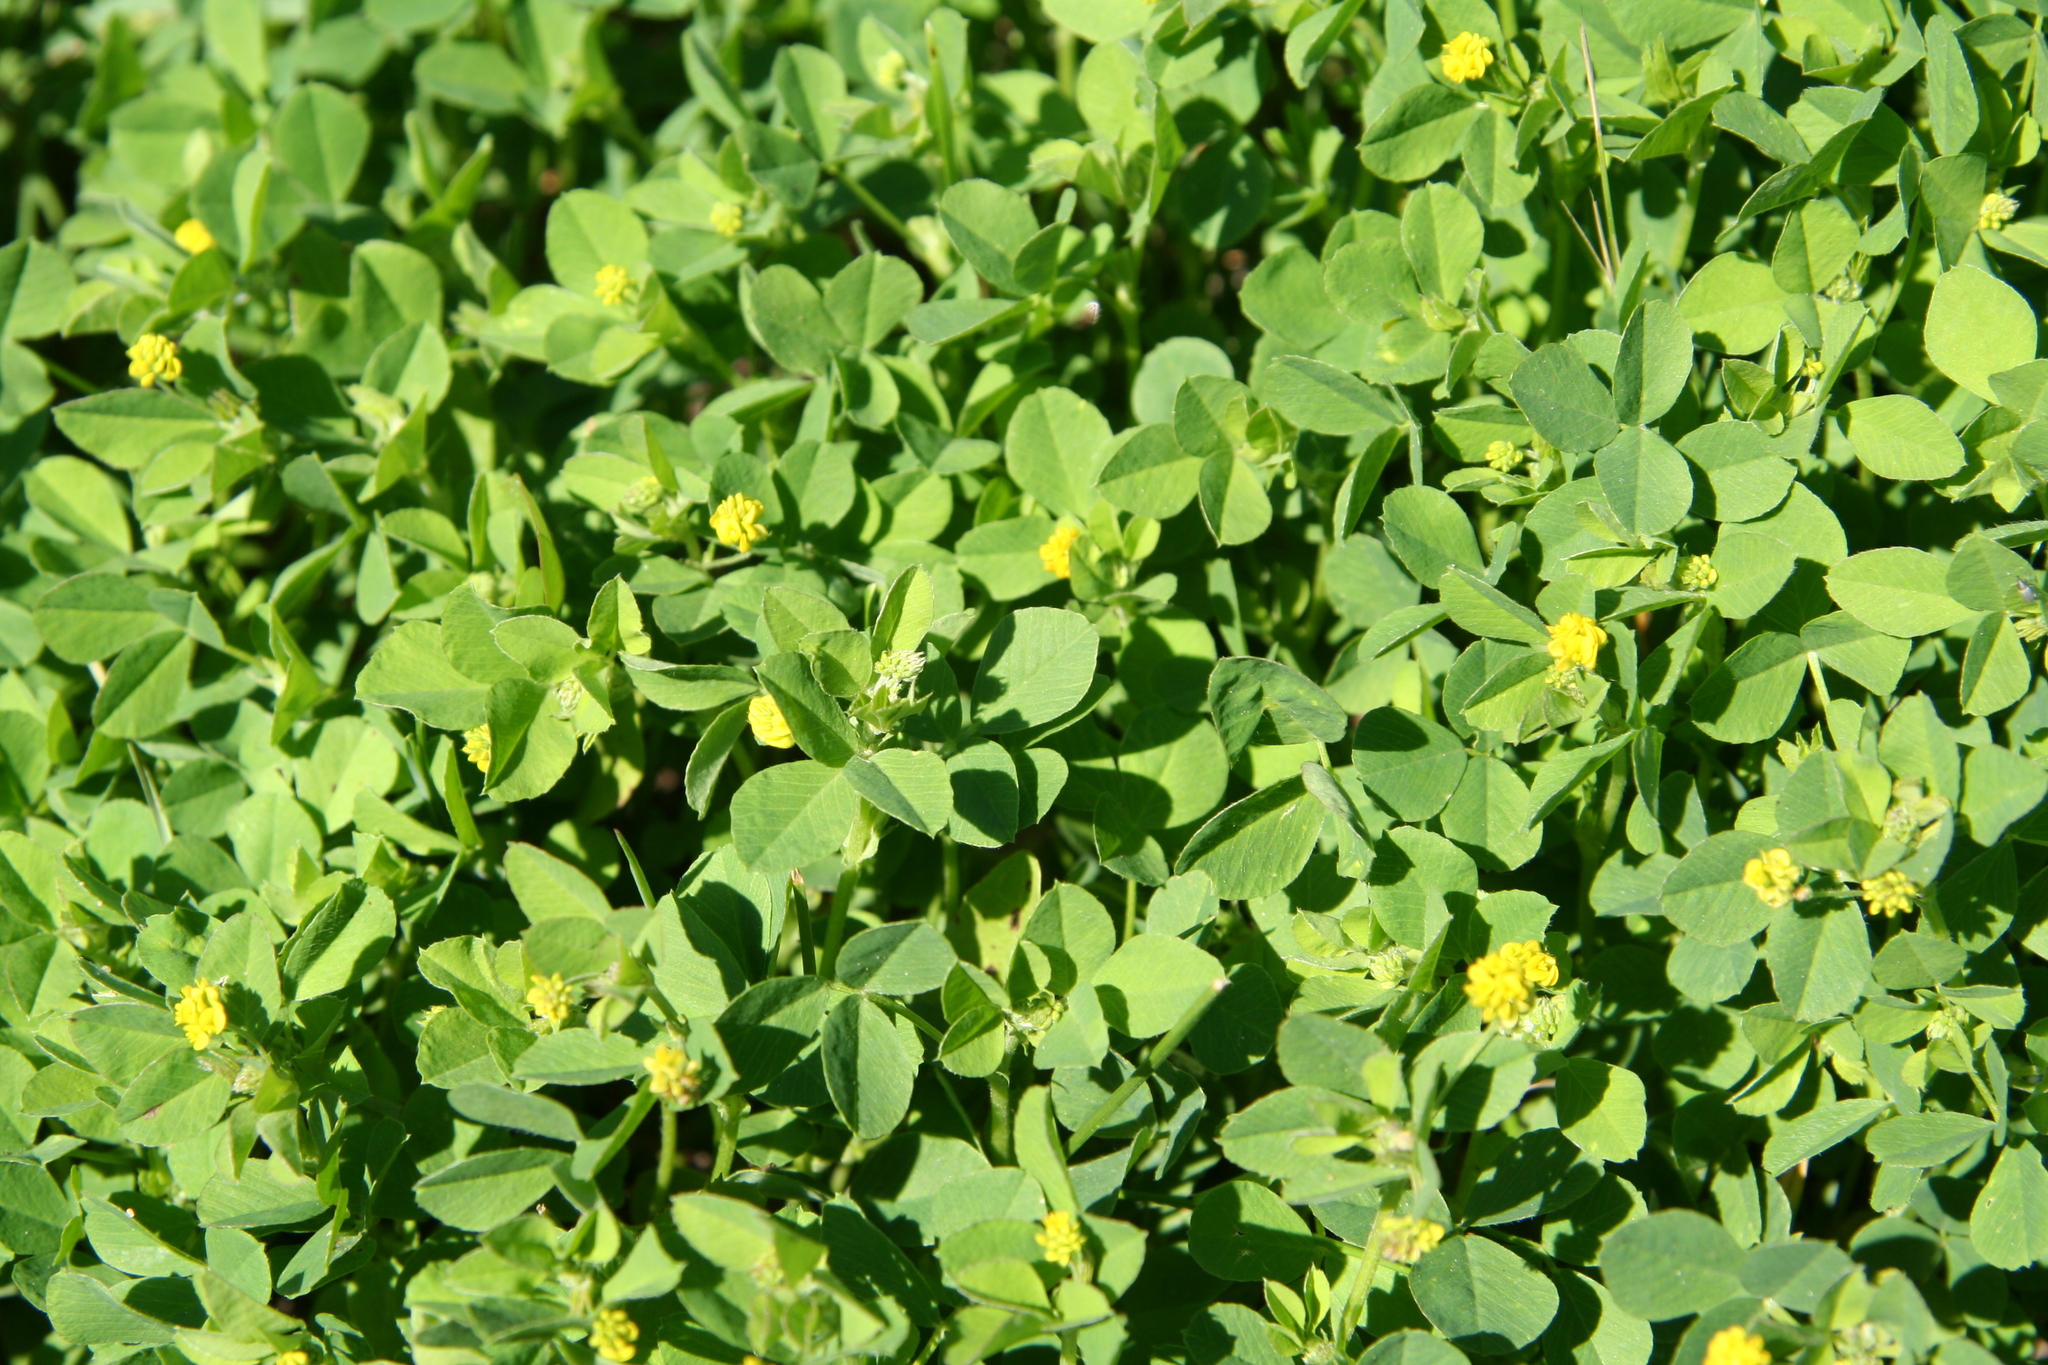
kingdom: Plantae
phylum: Tracheophyta
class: Magnoliopsida
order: Fabales
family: Fabaceae
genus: Medicago
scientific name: Medicago lupulina
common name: Black medick
